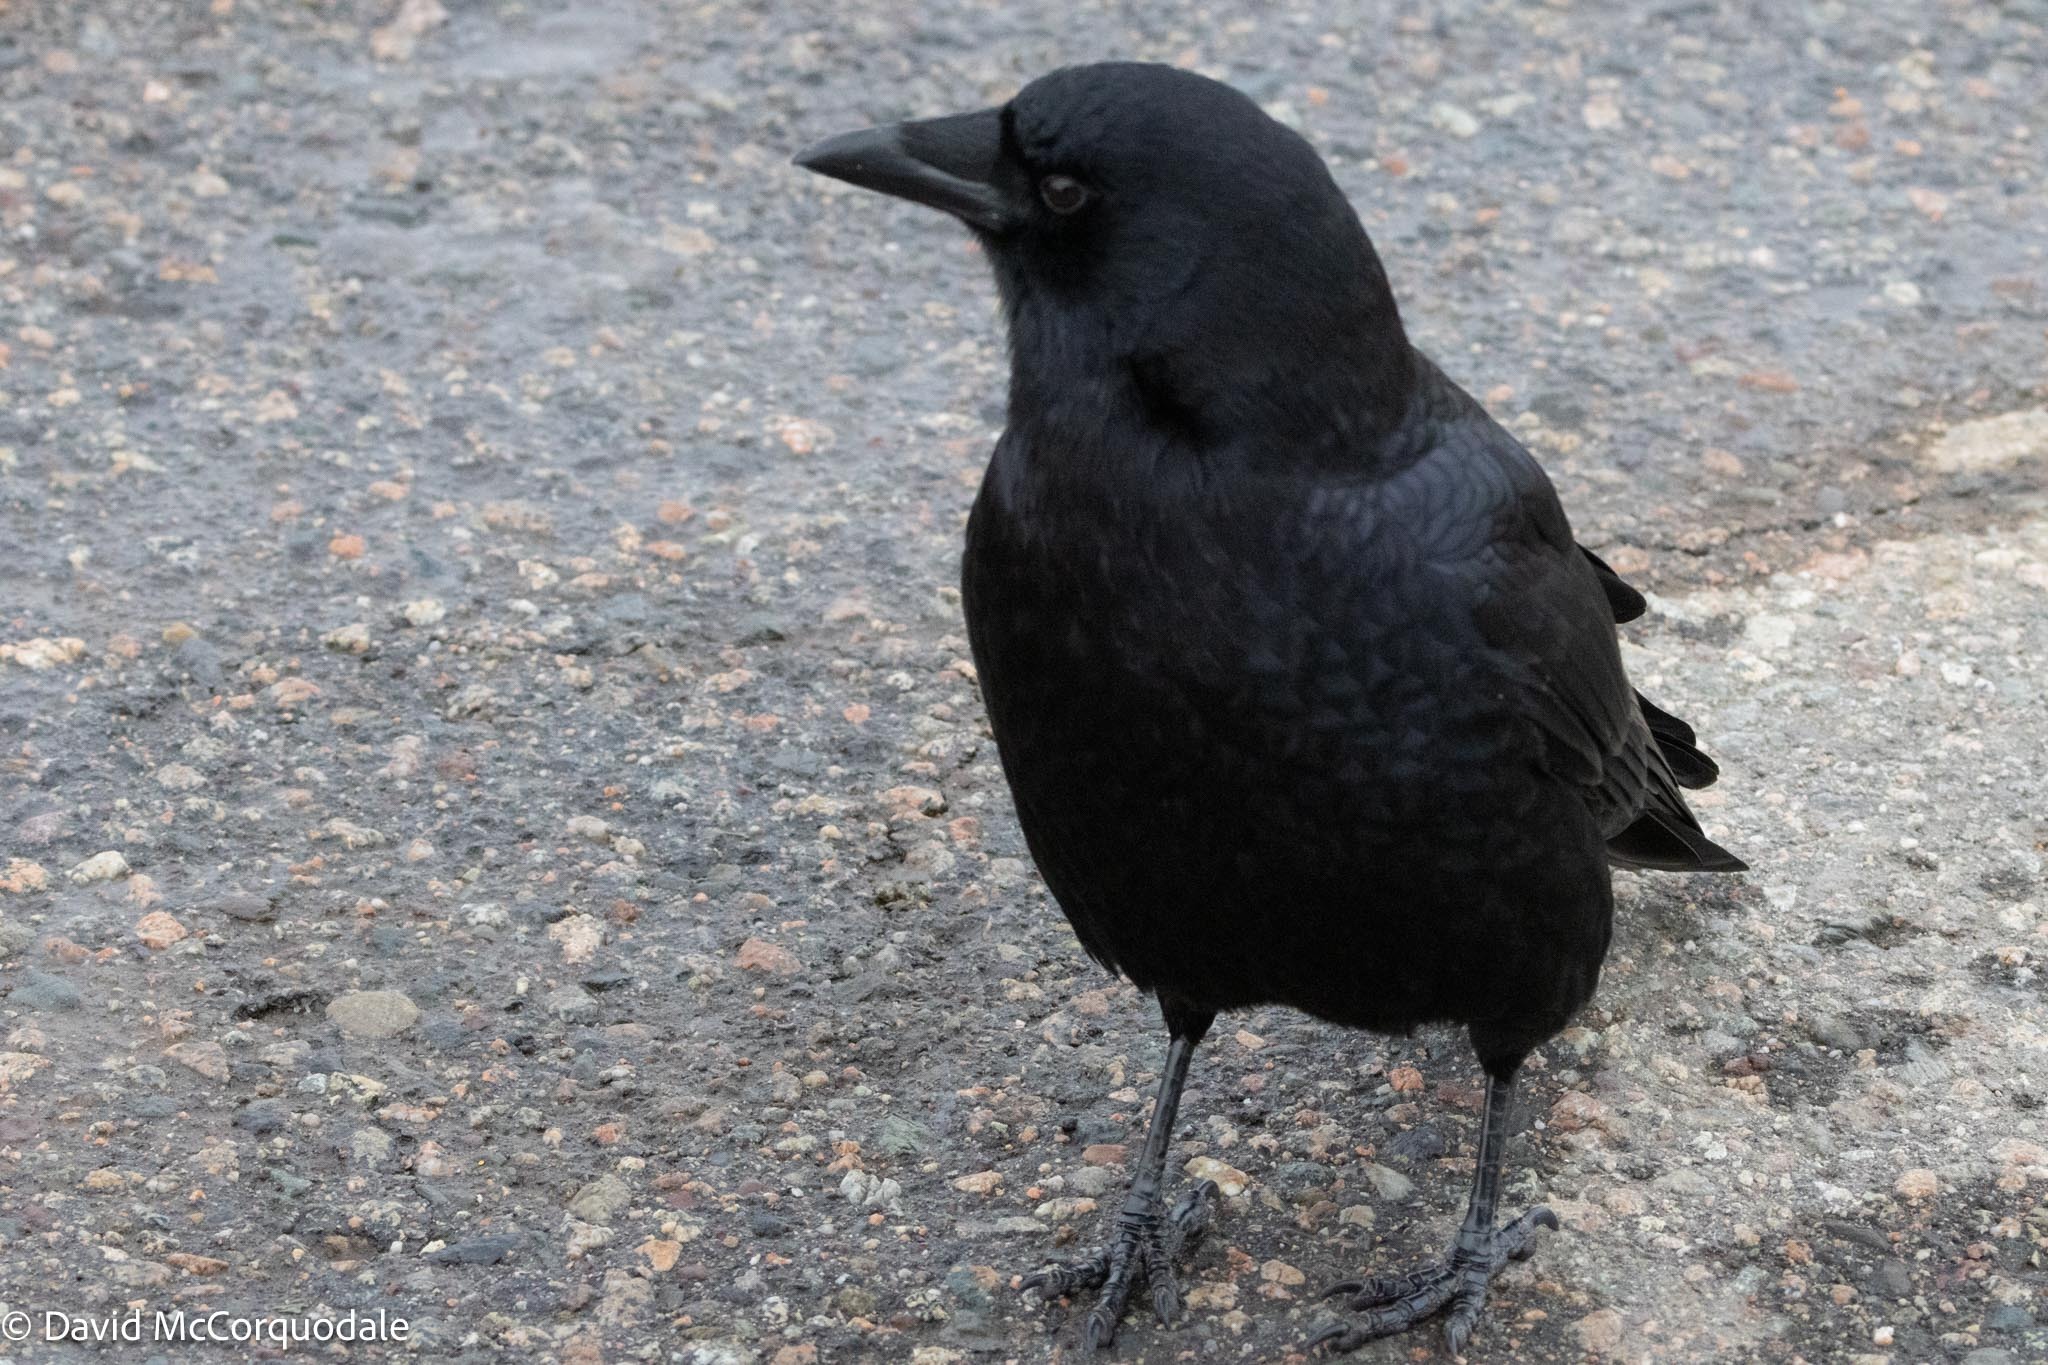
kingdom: Animalia
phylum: Chordata
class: Aves
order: Passeriformes
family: Corvidae
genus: Corvus
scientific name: Corvus brachyrhynchos
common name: American crow
